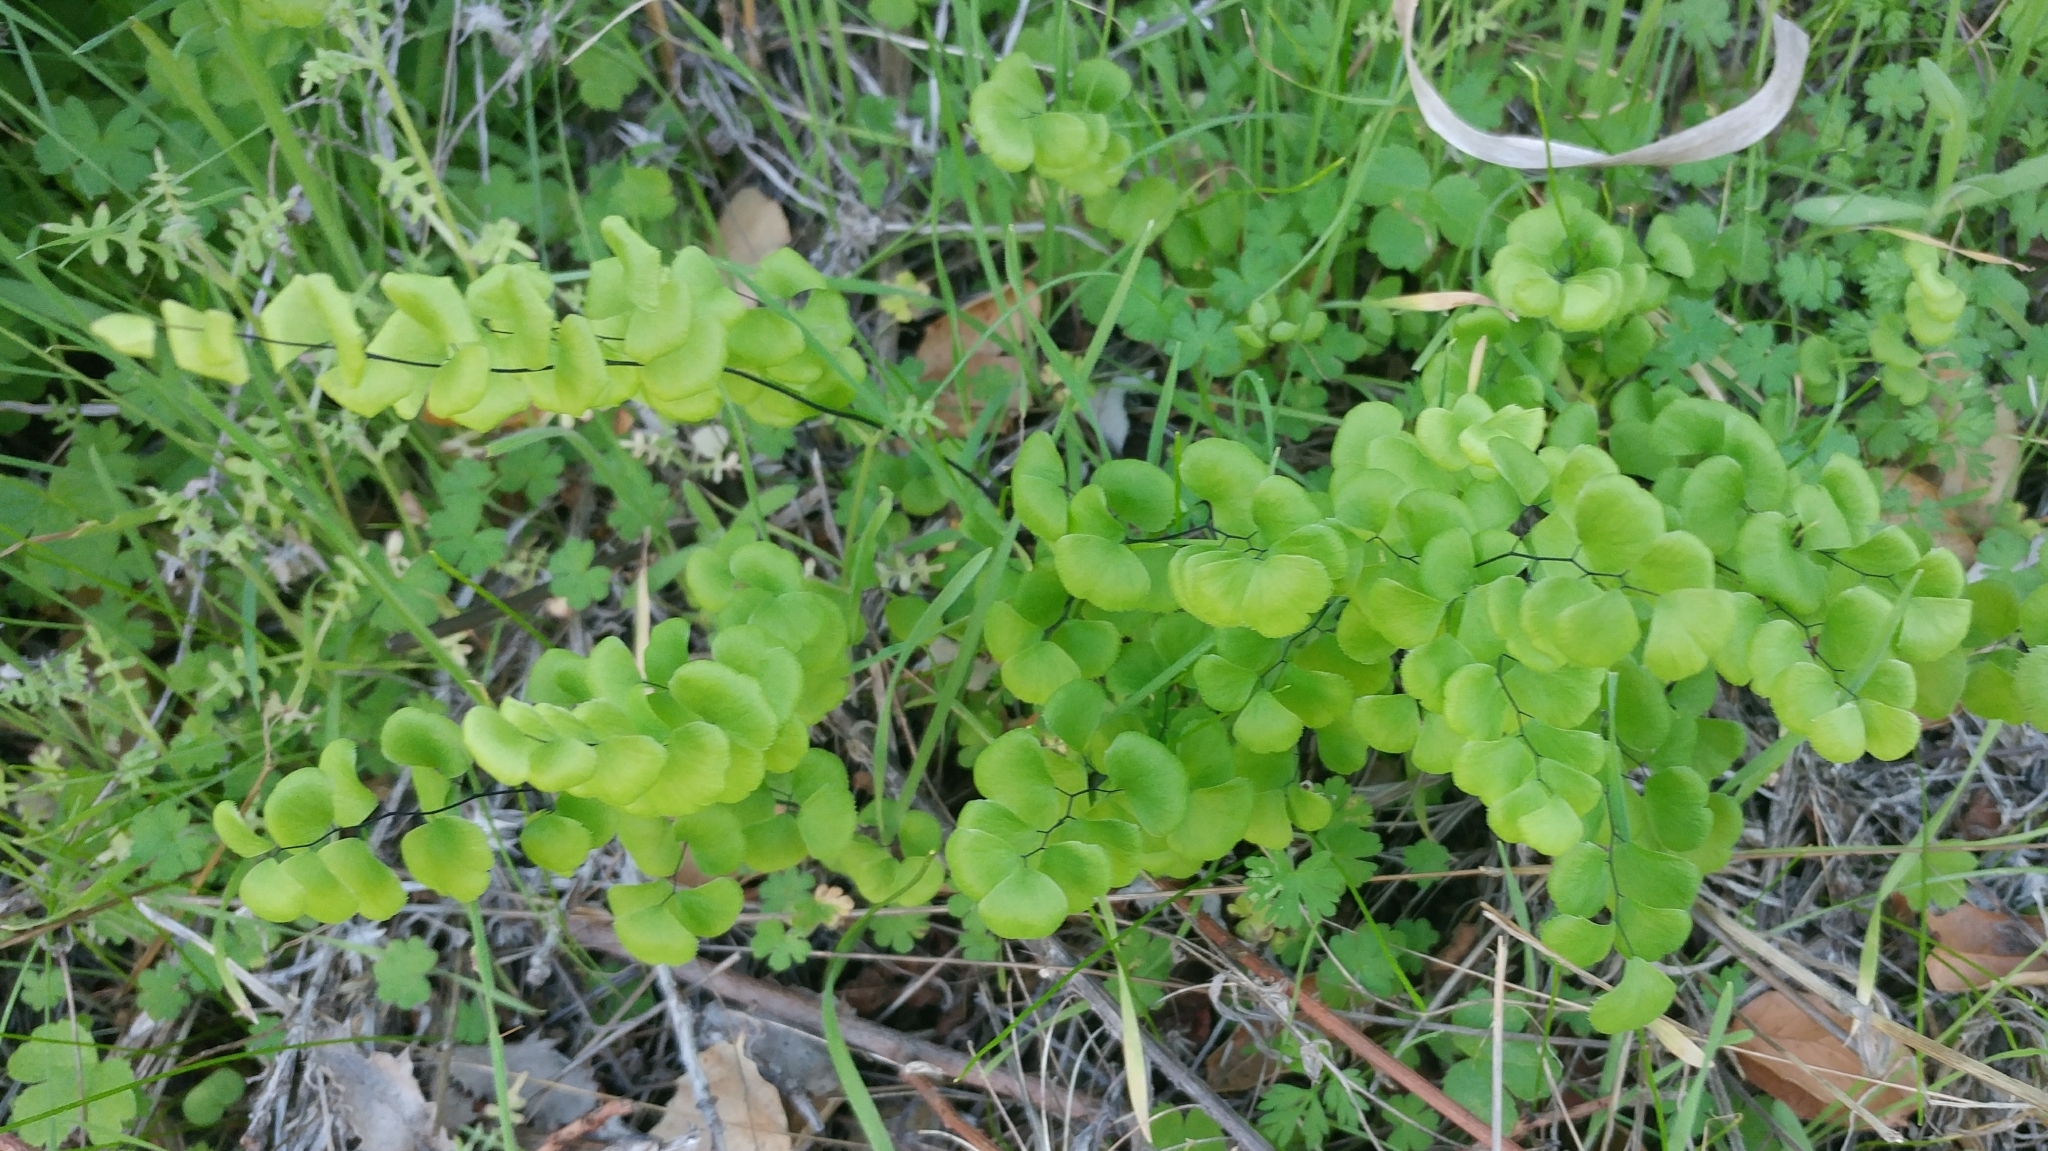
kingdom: Plantae
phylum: Tracheophyta
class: Polypodiopsida
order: Polypodiales
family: Pteridaceae
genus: Adiantum
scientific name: Adiantum jordanii
